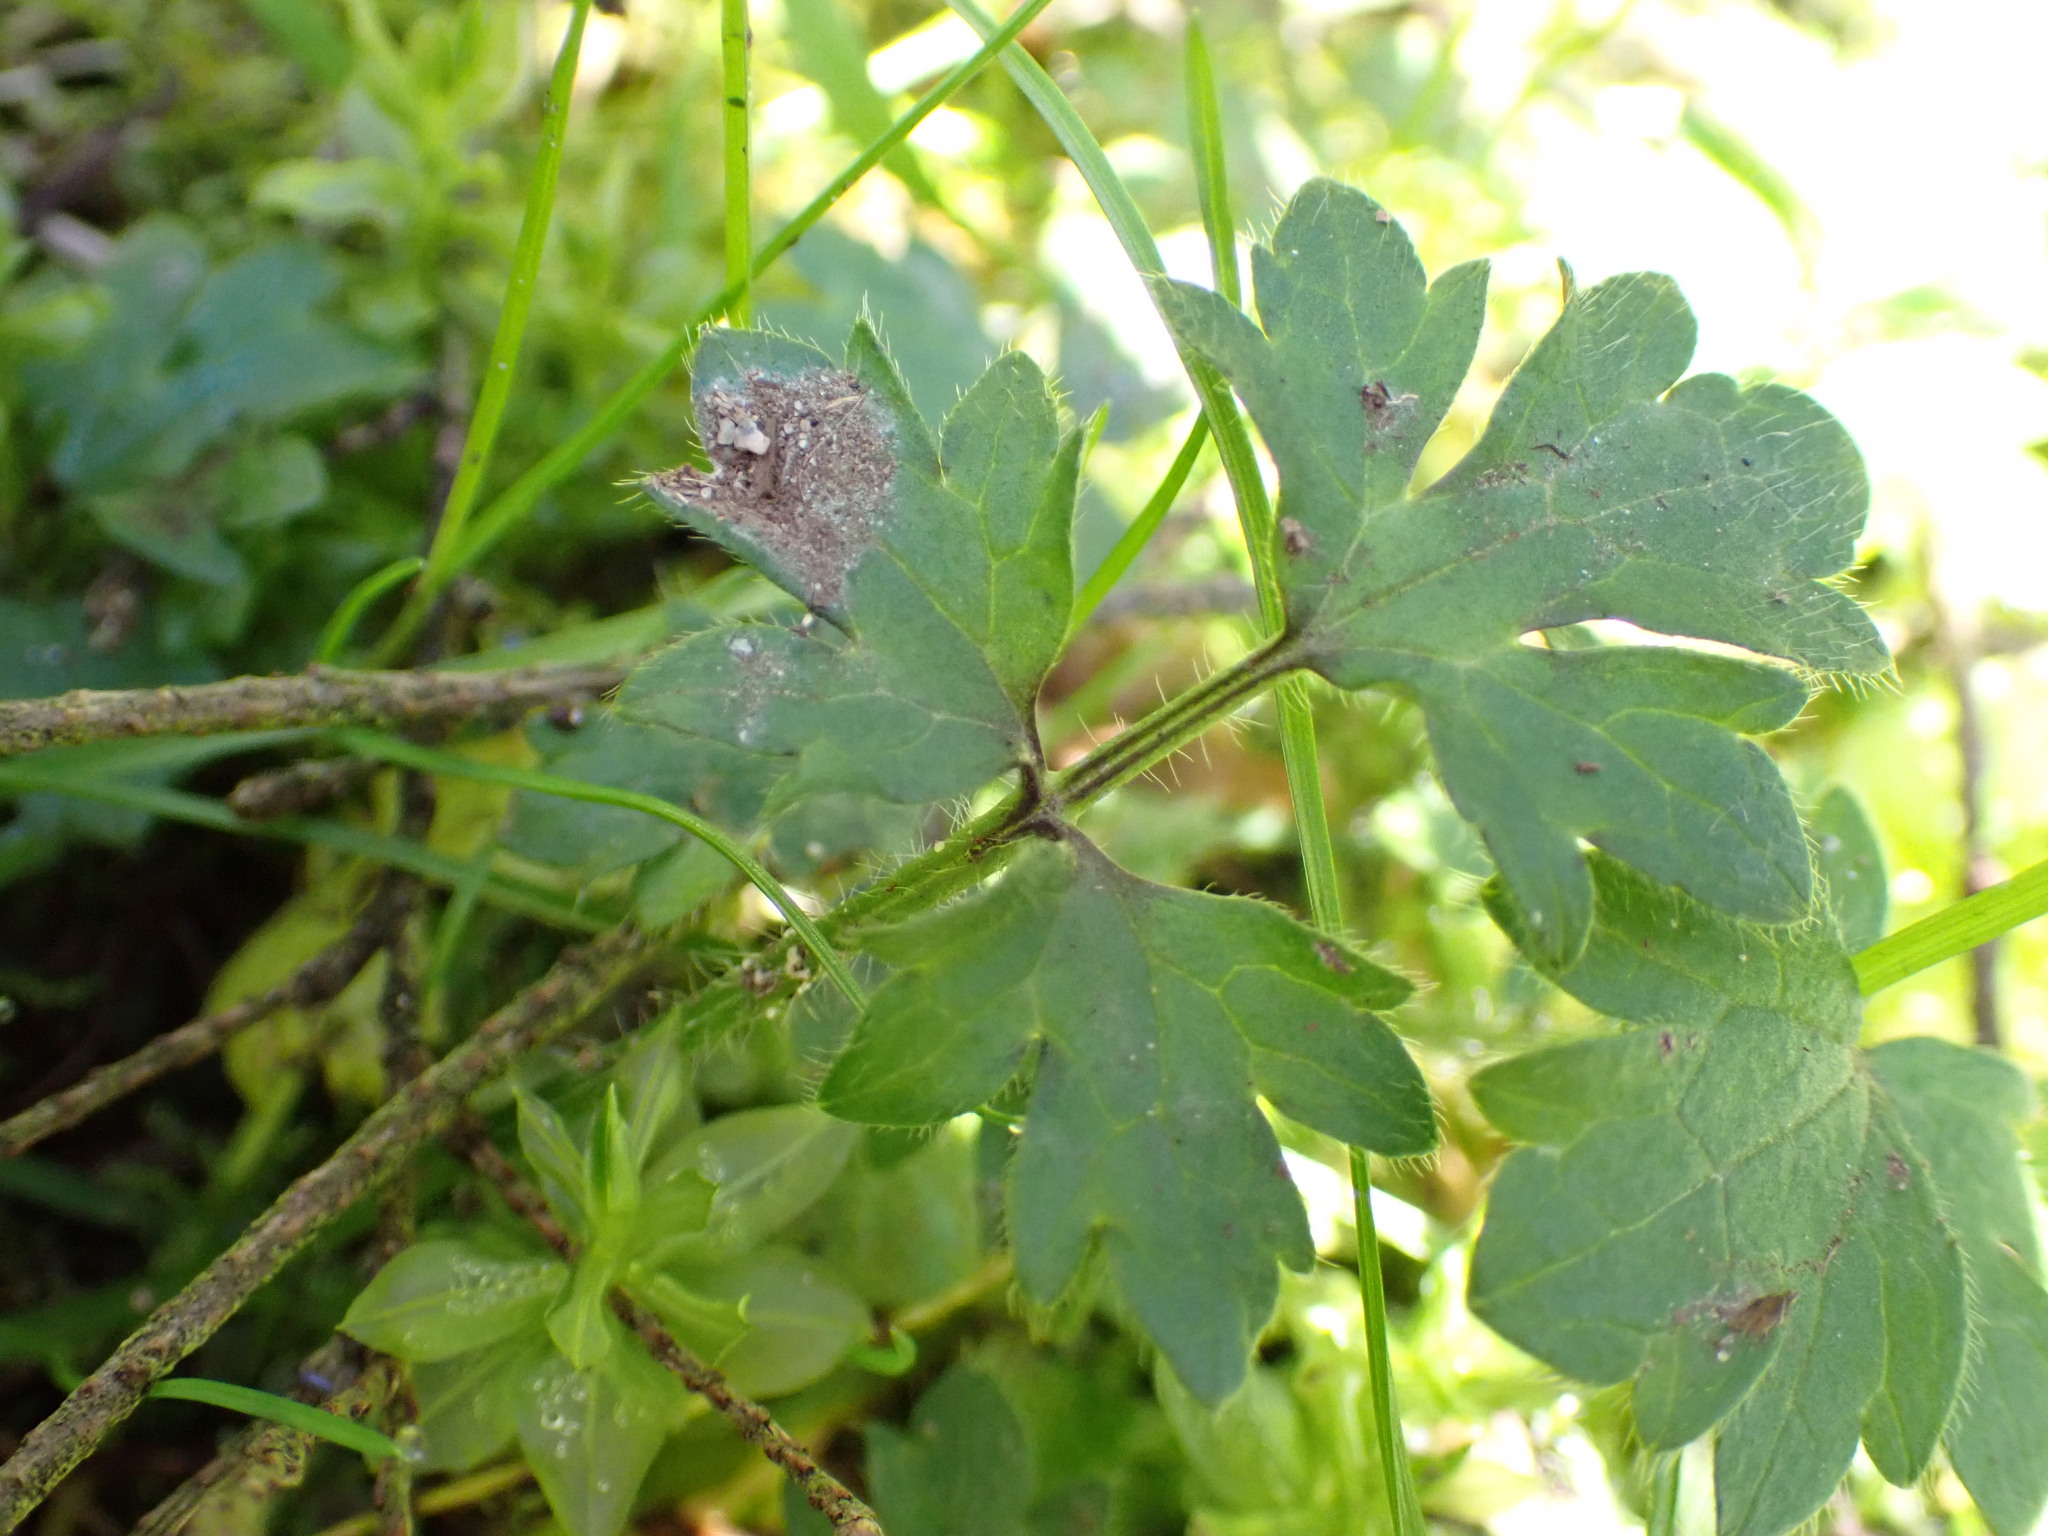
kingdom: Plantae
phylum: Tracheophyta
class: Magnoliopsida
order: Ranunculales
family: Ranunculaceae
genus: Ranunculus
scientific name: Ranunculus repens
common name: Creeping buttercup
